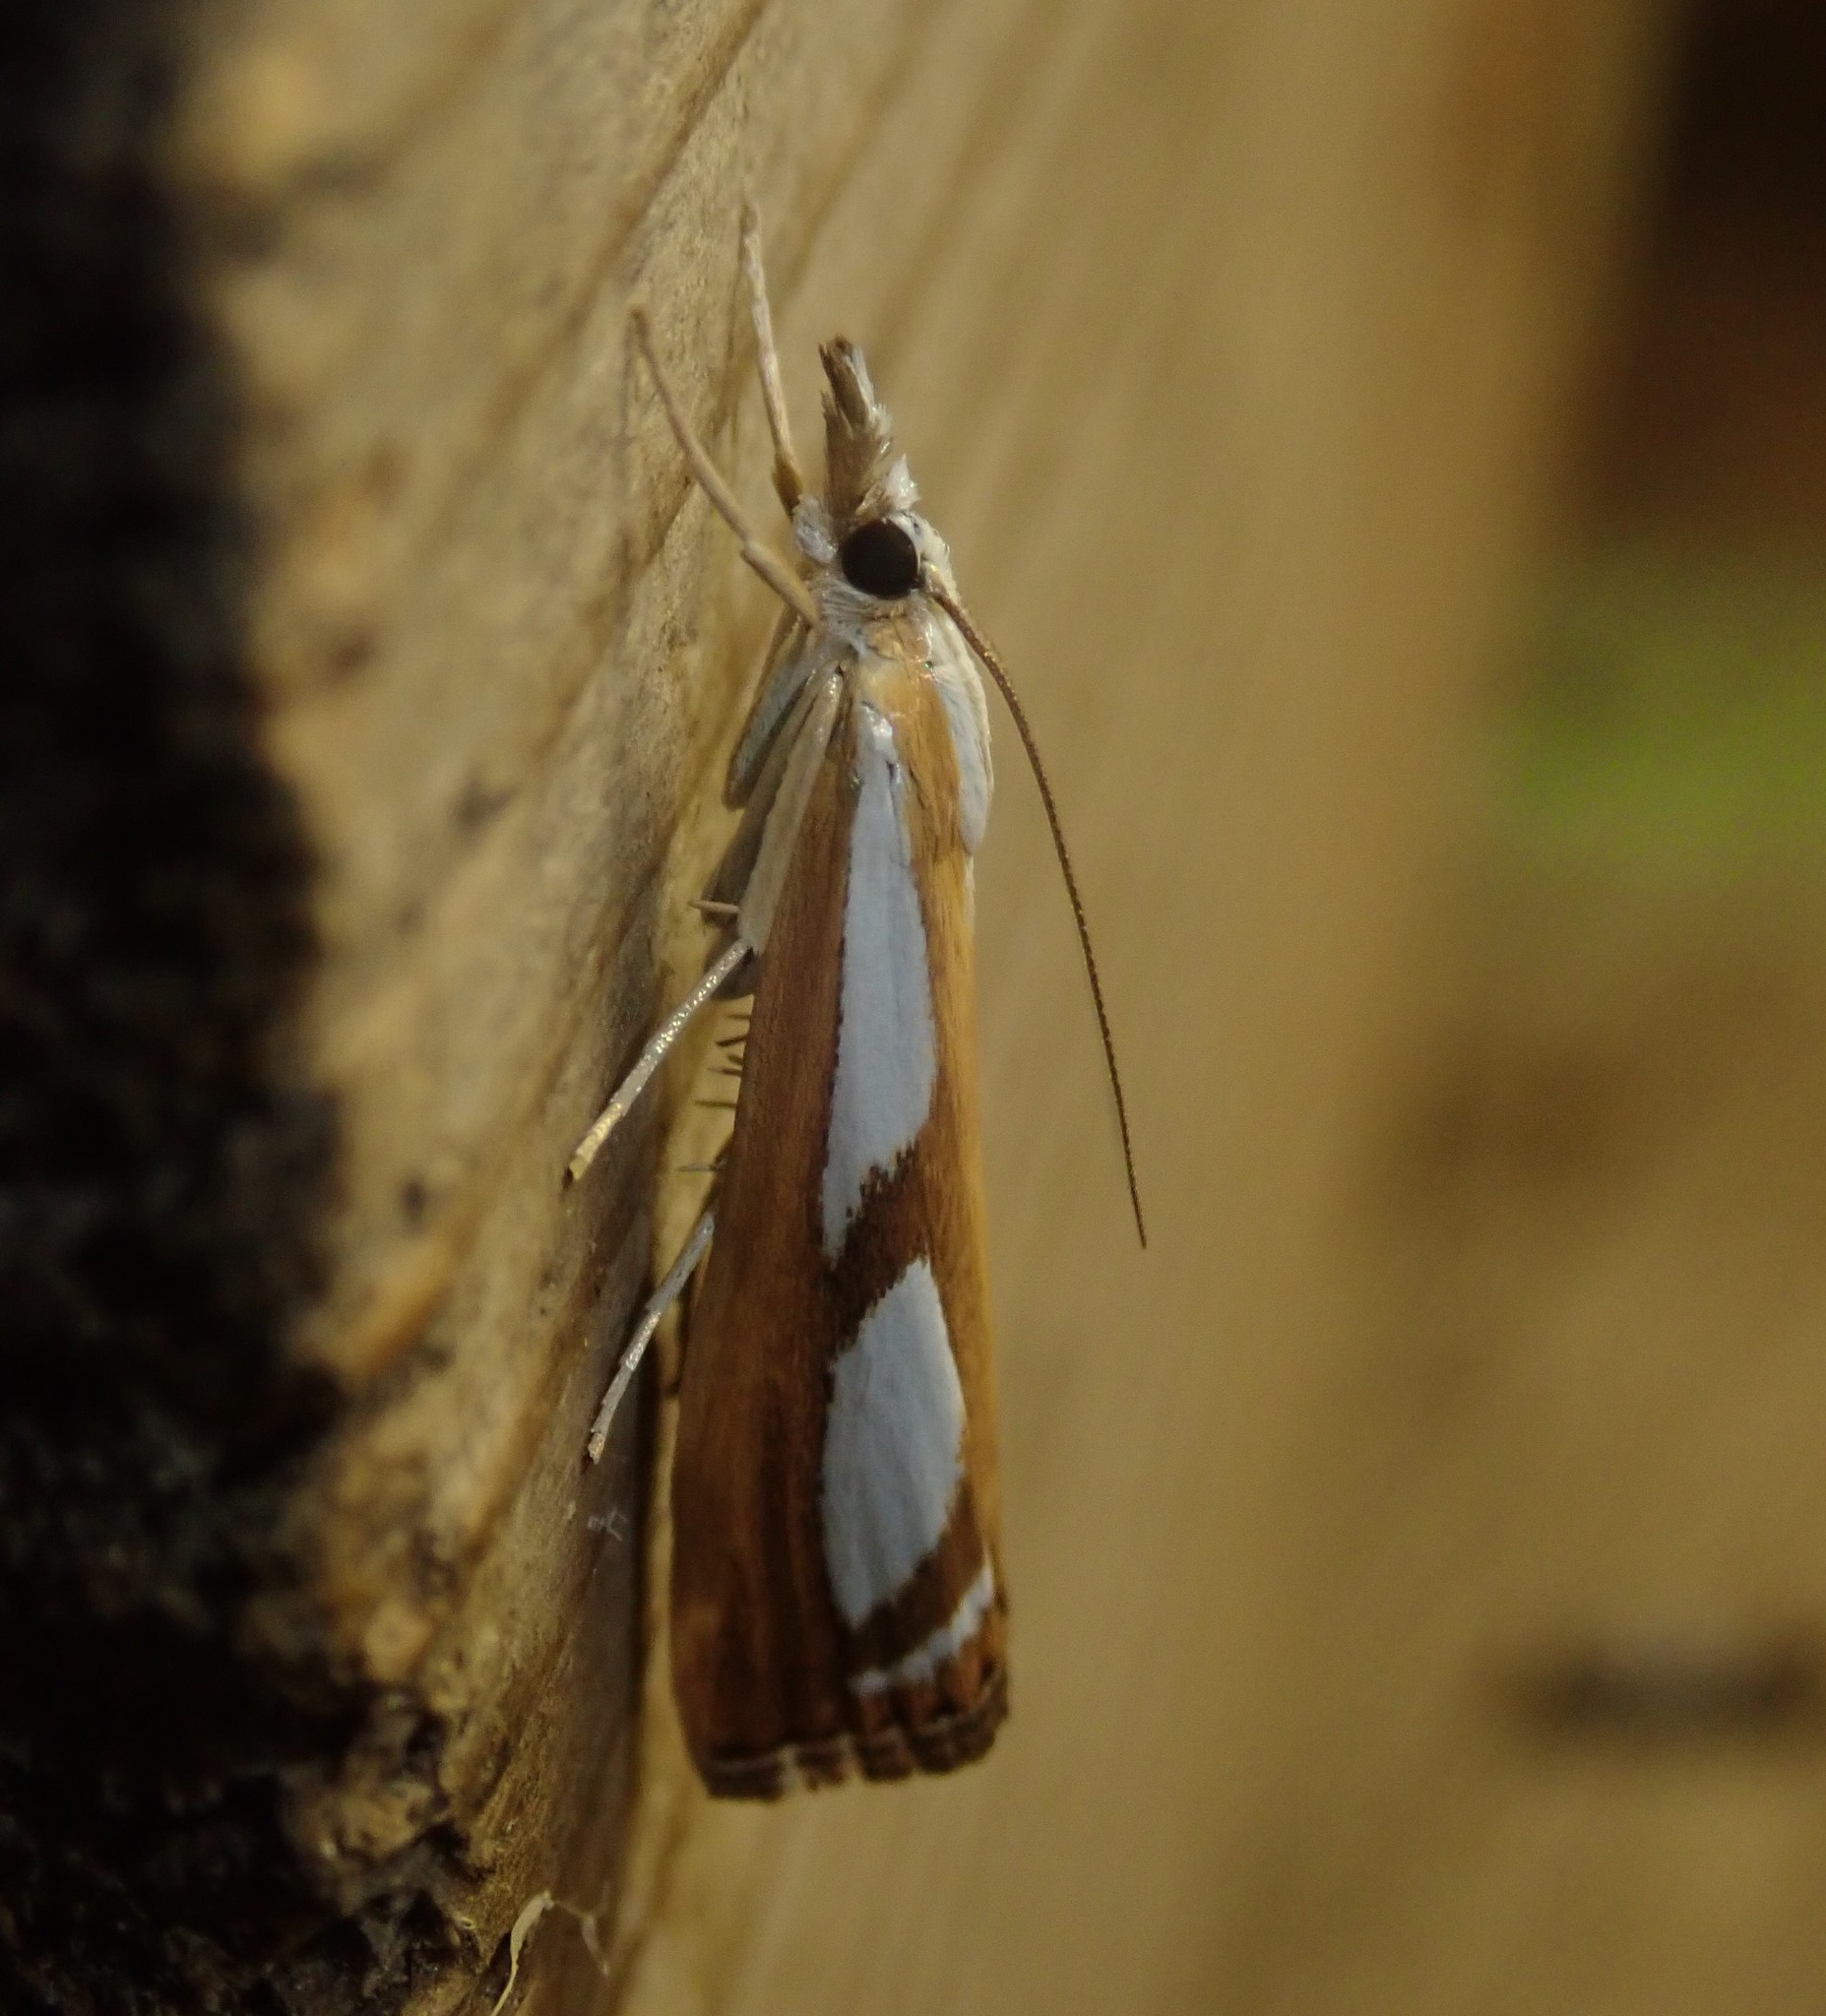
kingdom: Animalia
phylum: Arthropoda
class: Insecta
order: Lepidoptera
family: Crambidae
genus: Catoptria
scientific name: Catoptria
